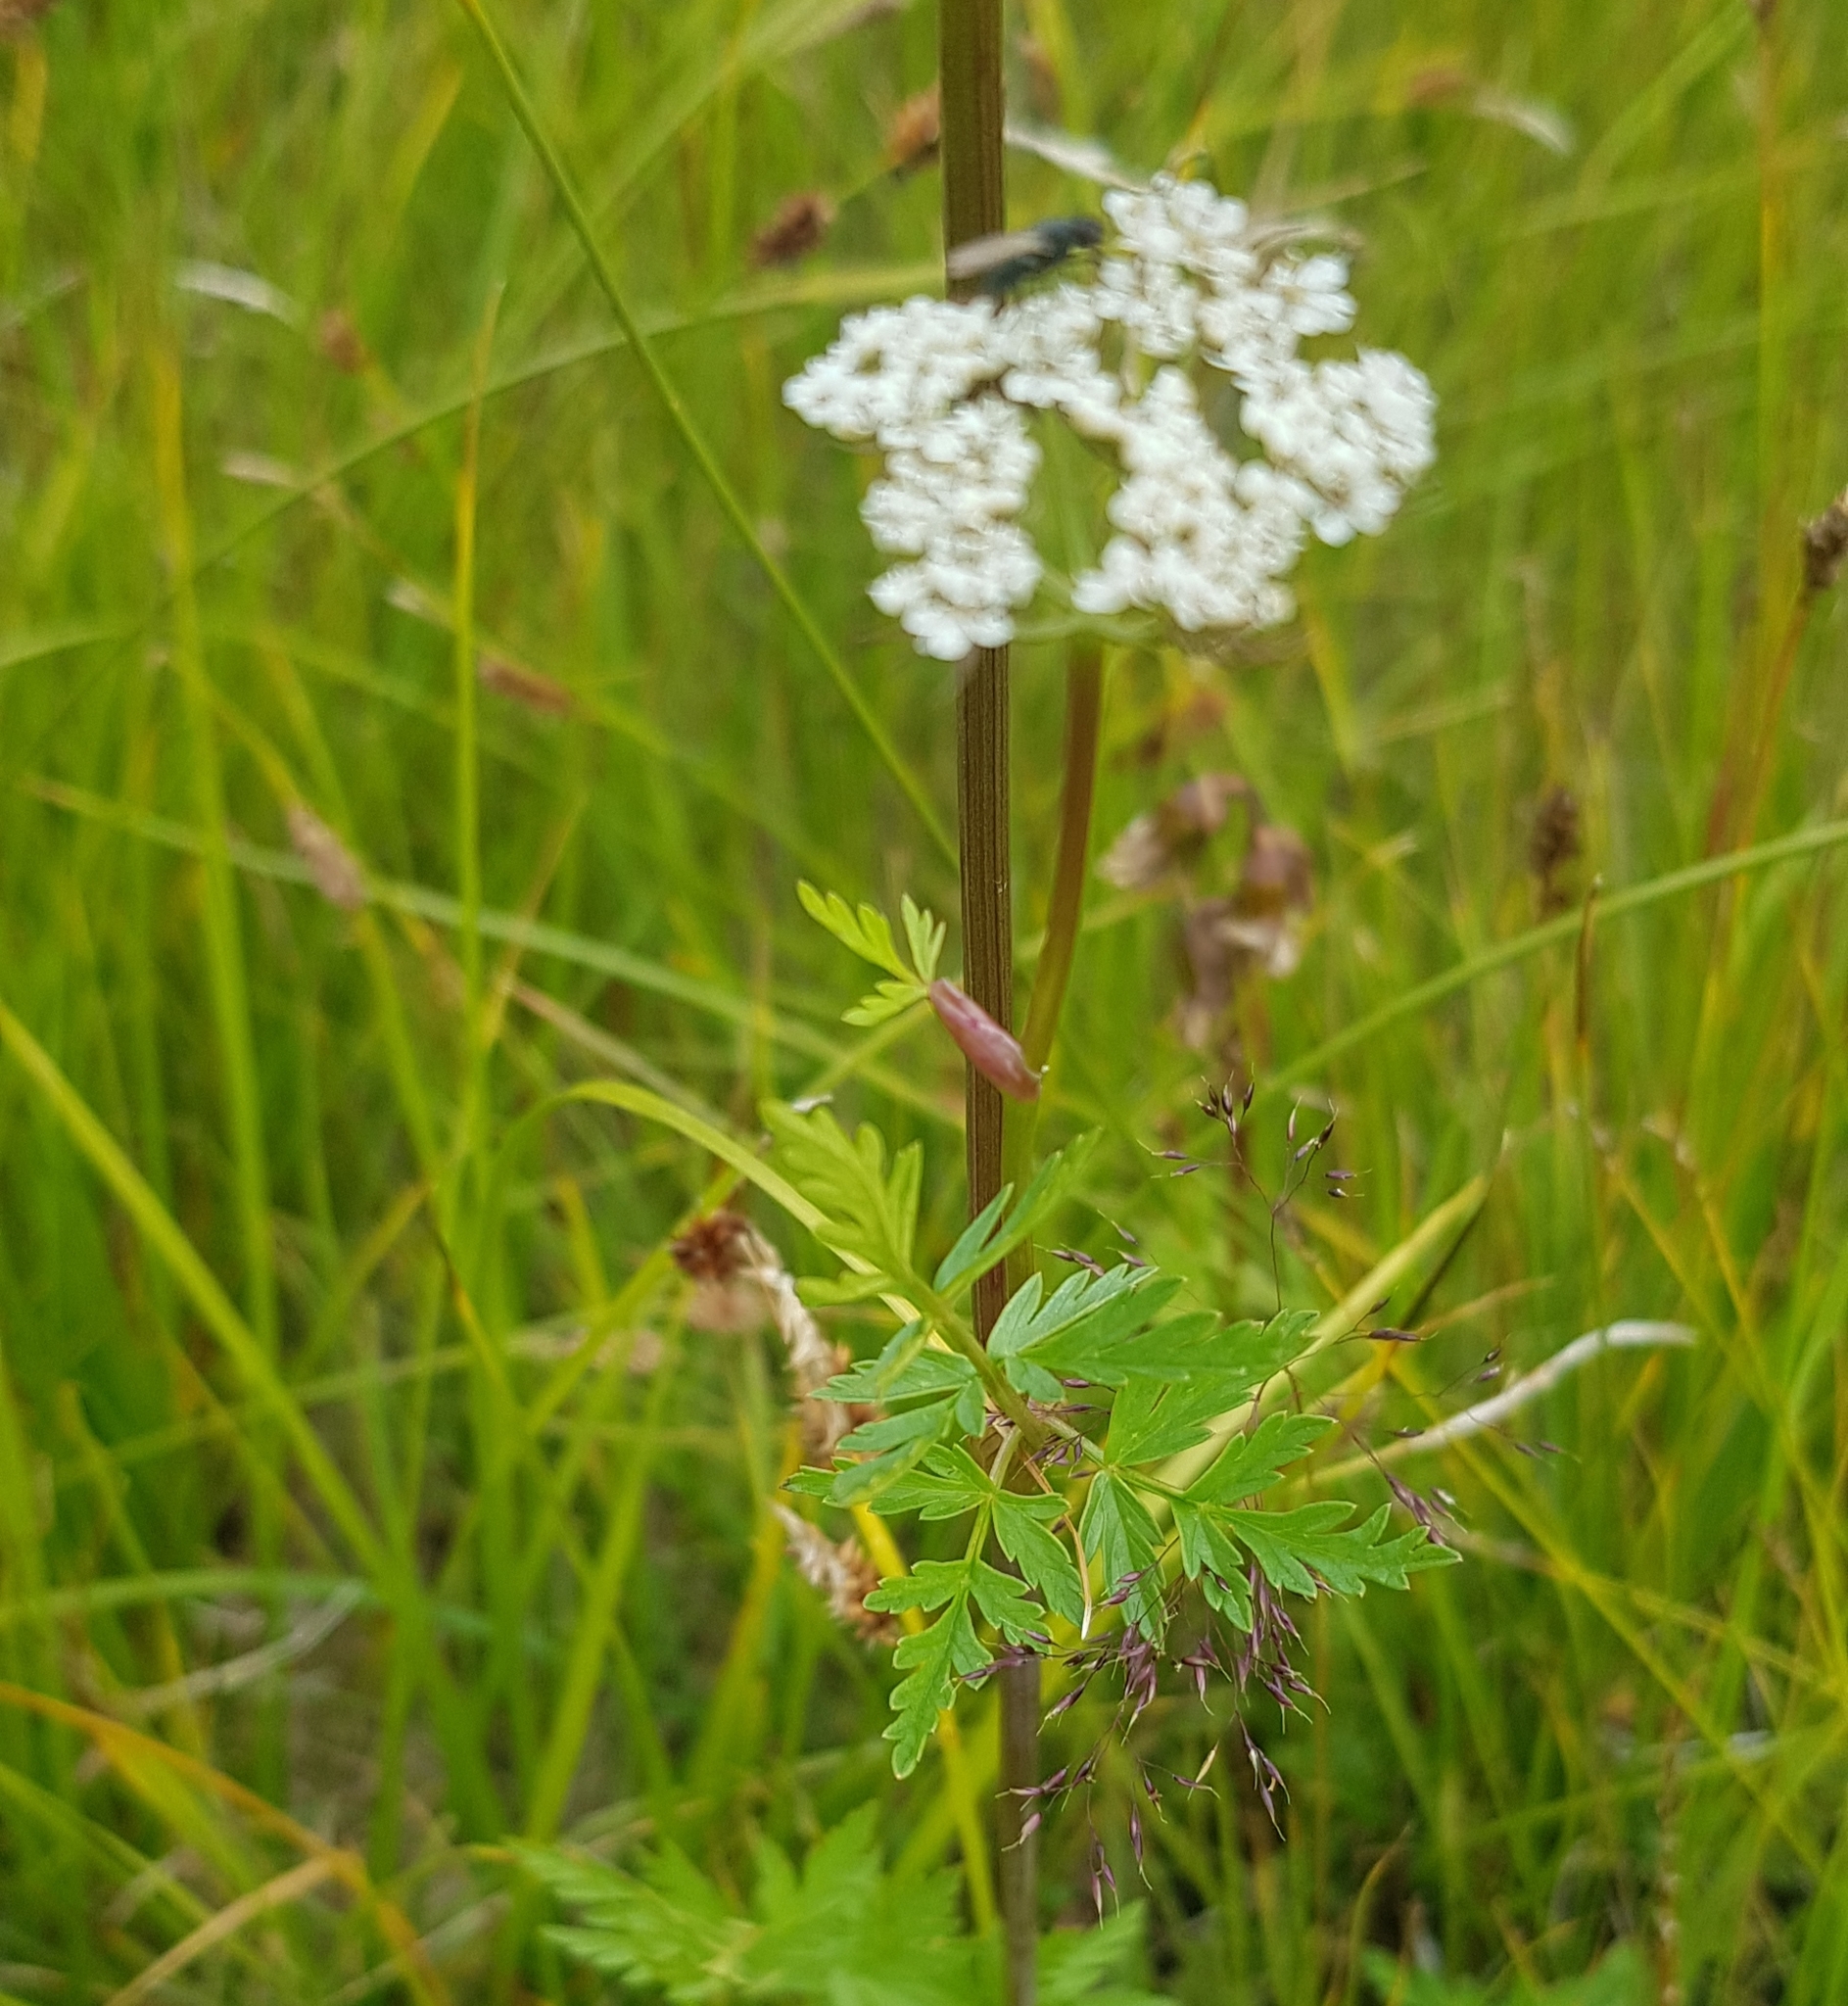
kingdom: Plantae
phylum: Tracheophyta
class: Magnoliopsida
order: Apiales
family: Apiaceae
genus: Conioselinum
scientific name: Conioselinum tataricum
